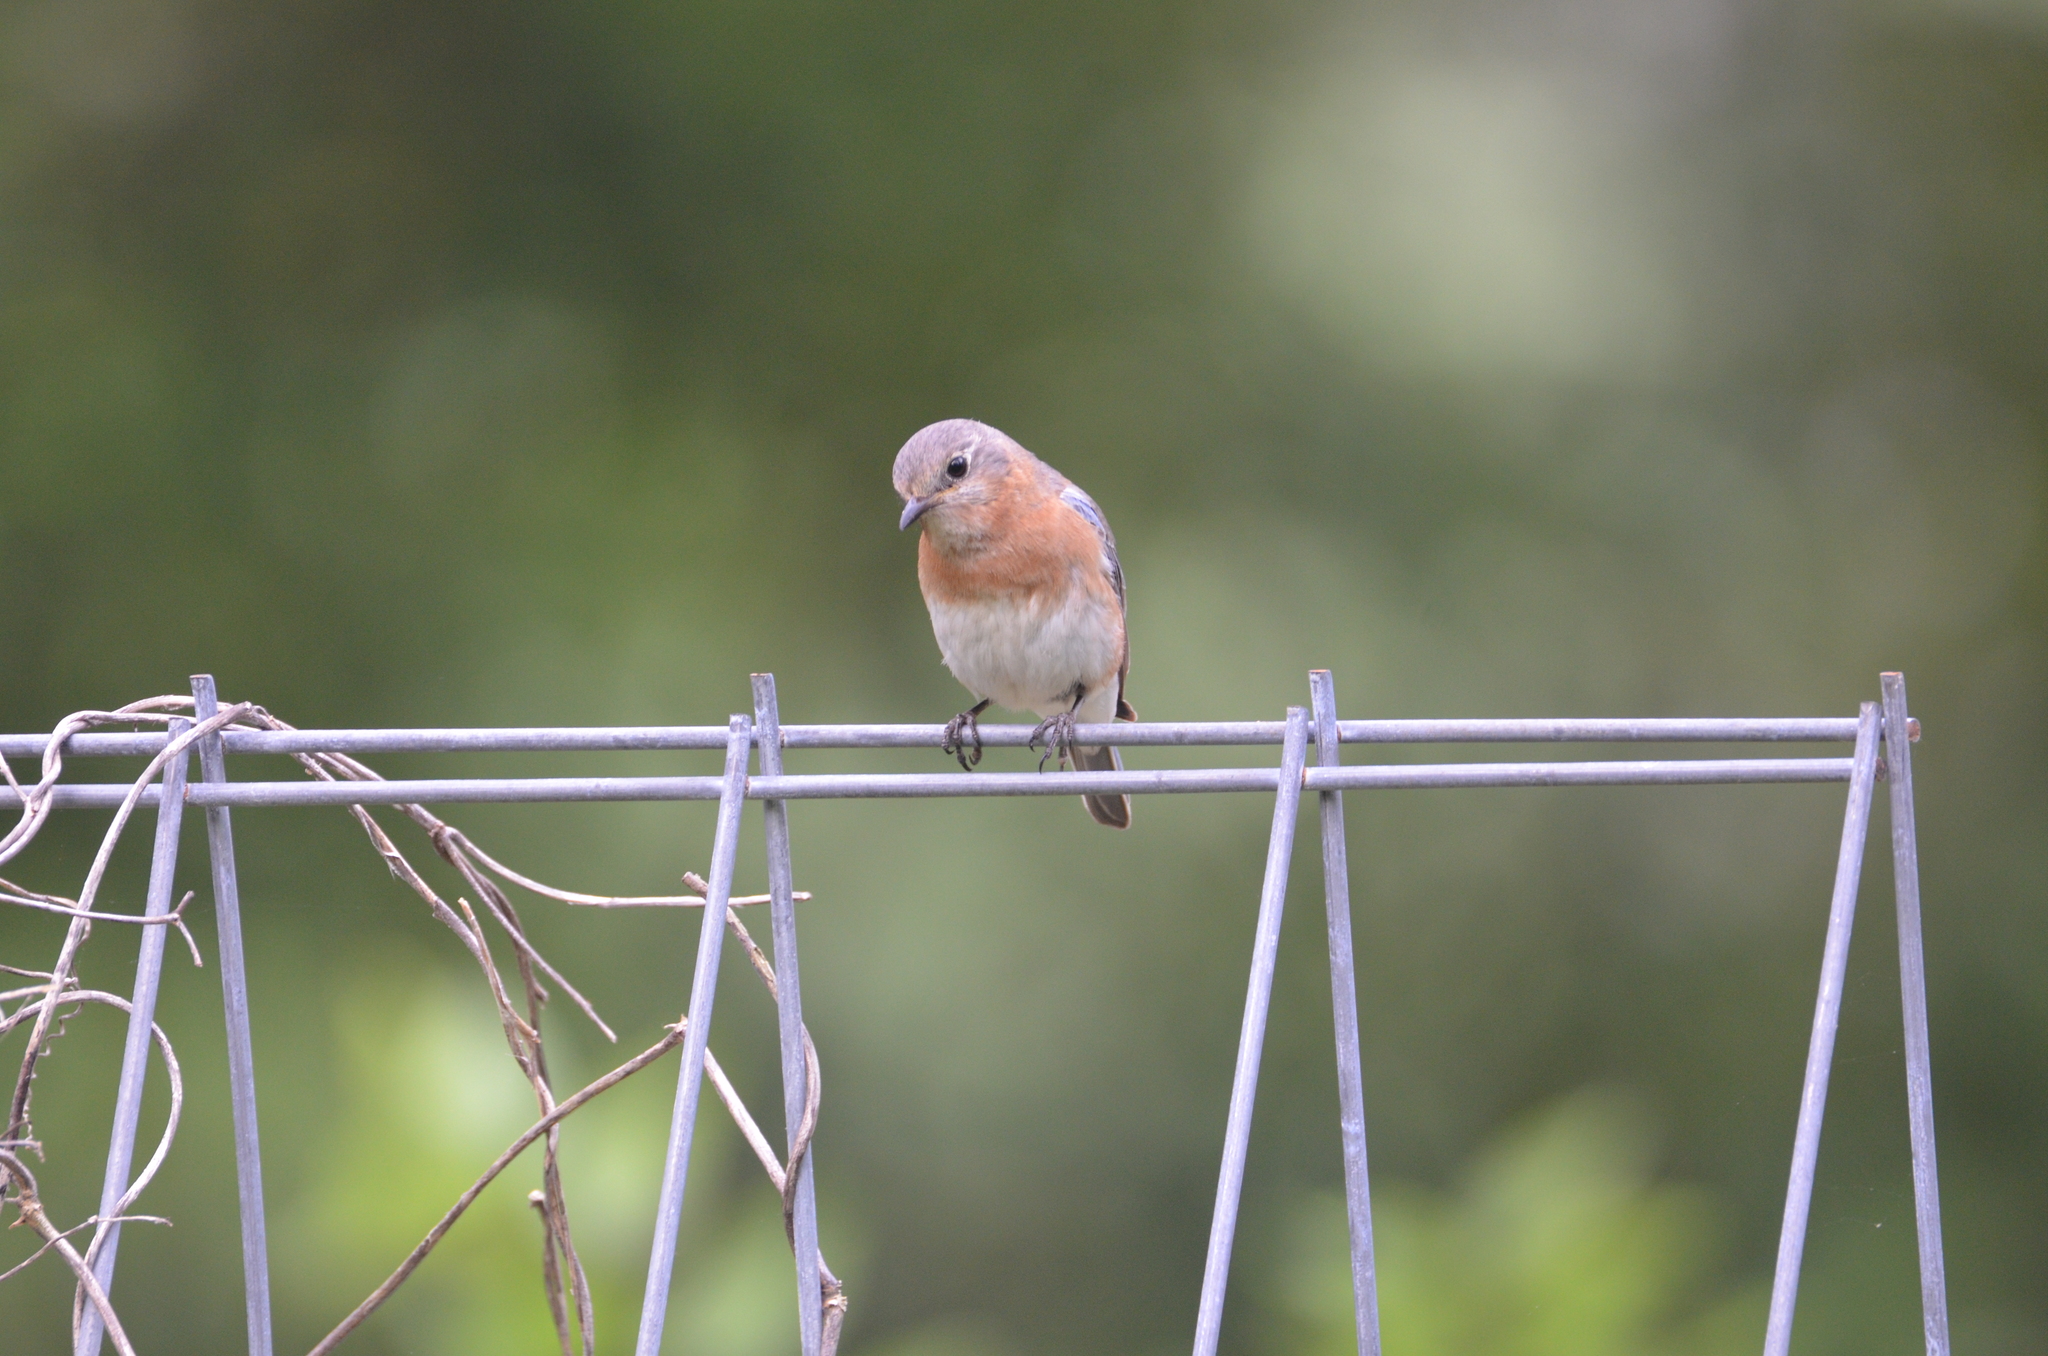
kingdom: Animalia
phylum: Chordata
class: Aves
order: Passeriformes
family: Turdidae
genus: Sialia
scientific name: Sialia sialis
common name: Eastern bluebird
